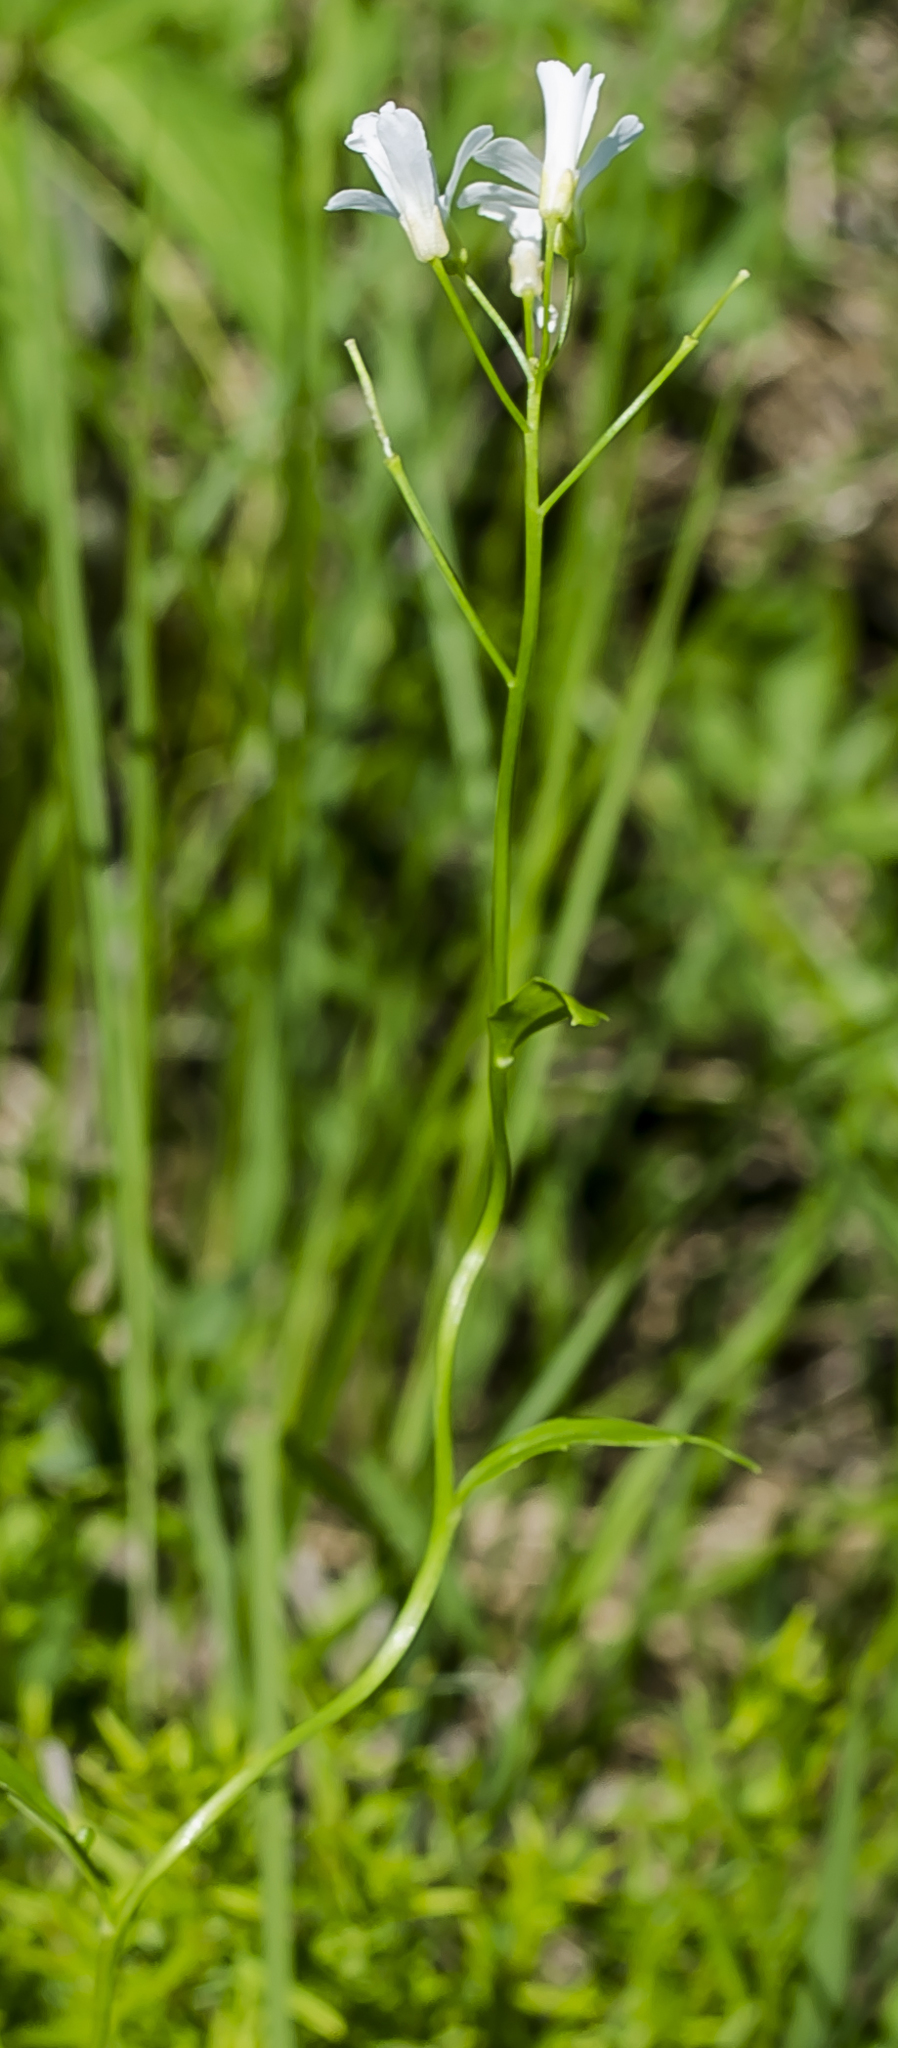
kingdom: Plantae
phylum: Tracheophyta
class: Magnoliopsida
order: Brassicales
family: Brassicaceae
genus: Cardamine
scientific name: Cardamine bulbosa
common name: Spring cress
